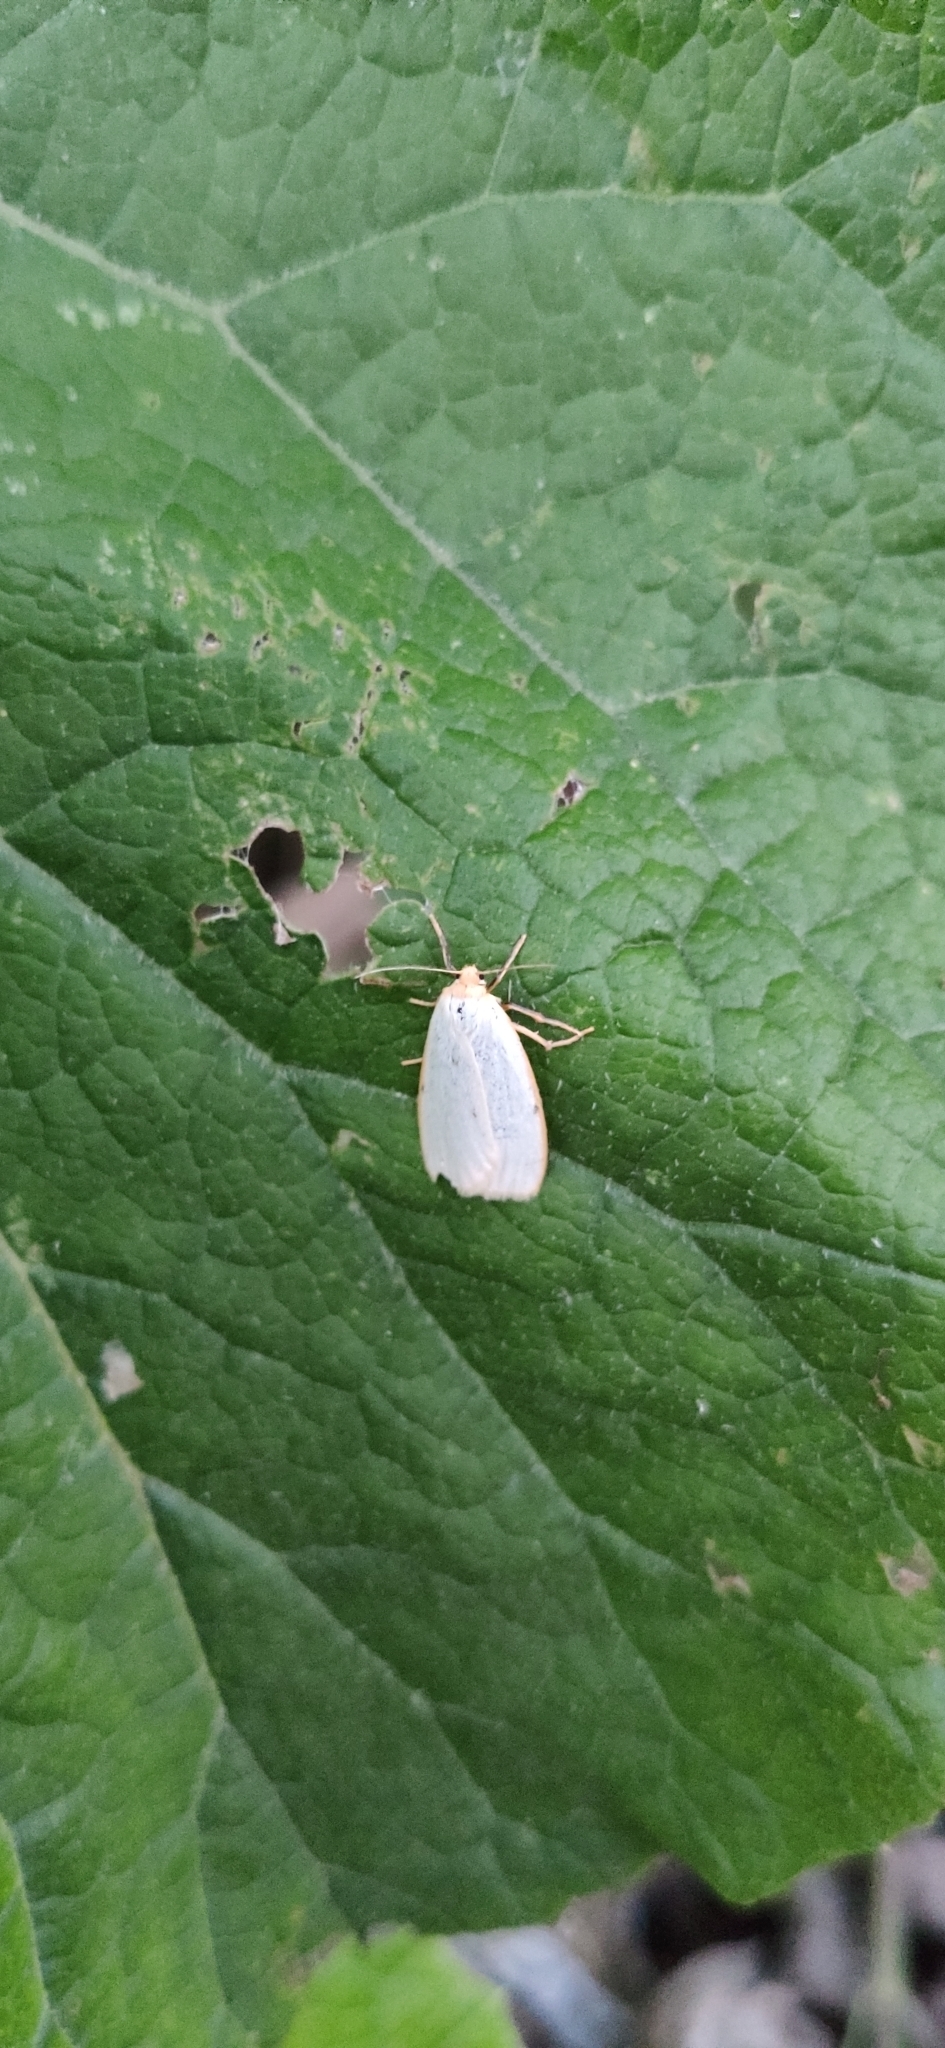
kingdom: Animalia
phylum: Arthropoda
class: Insecta
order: Lepidoptera
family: Erebidae
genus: Cybosia
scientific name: Cybosia mesomella
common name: Four-dotted footman
